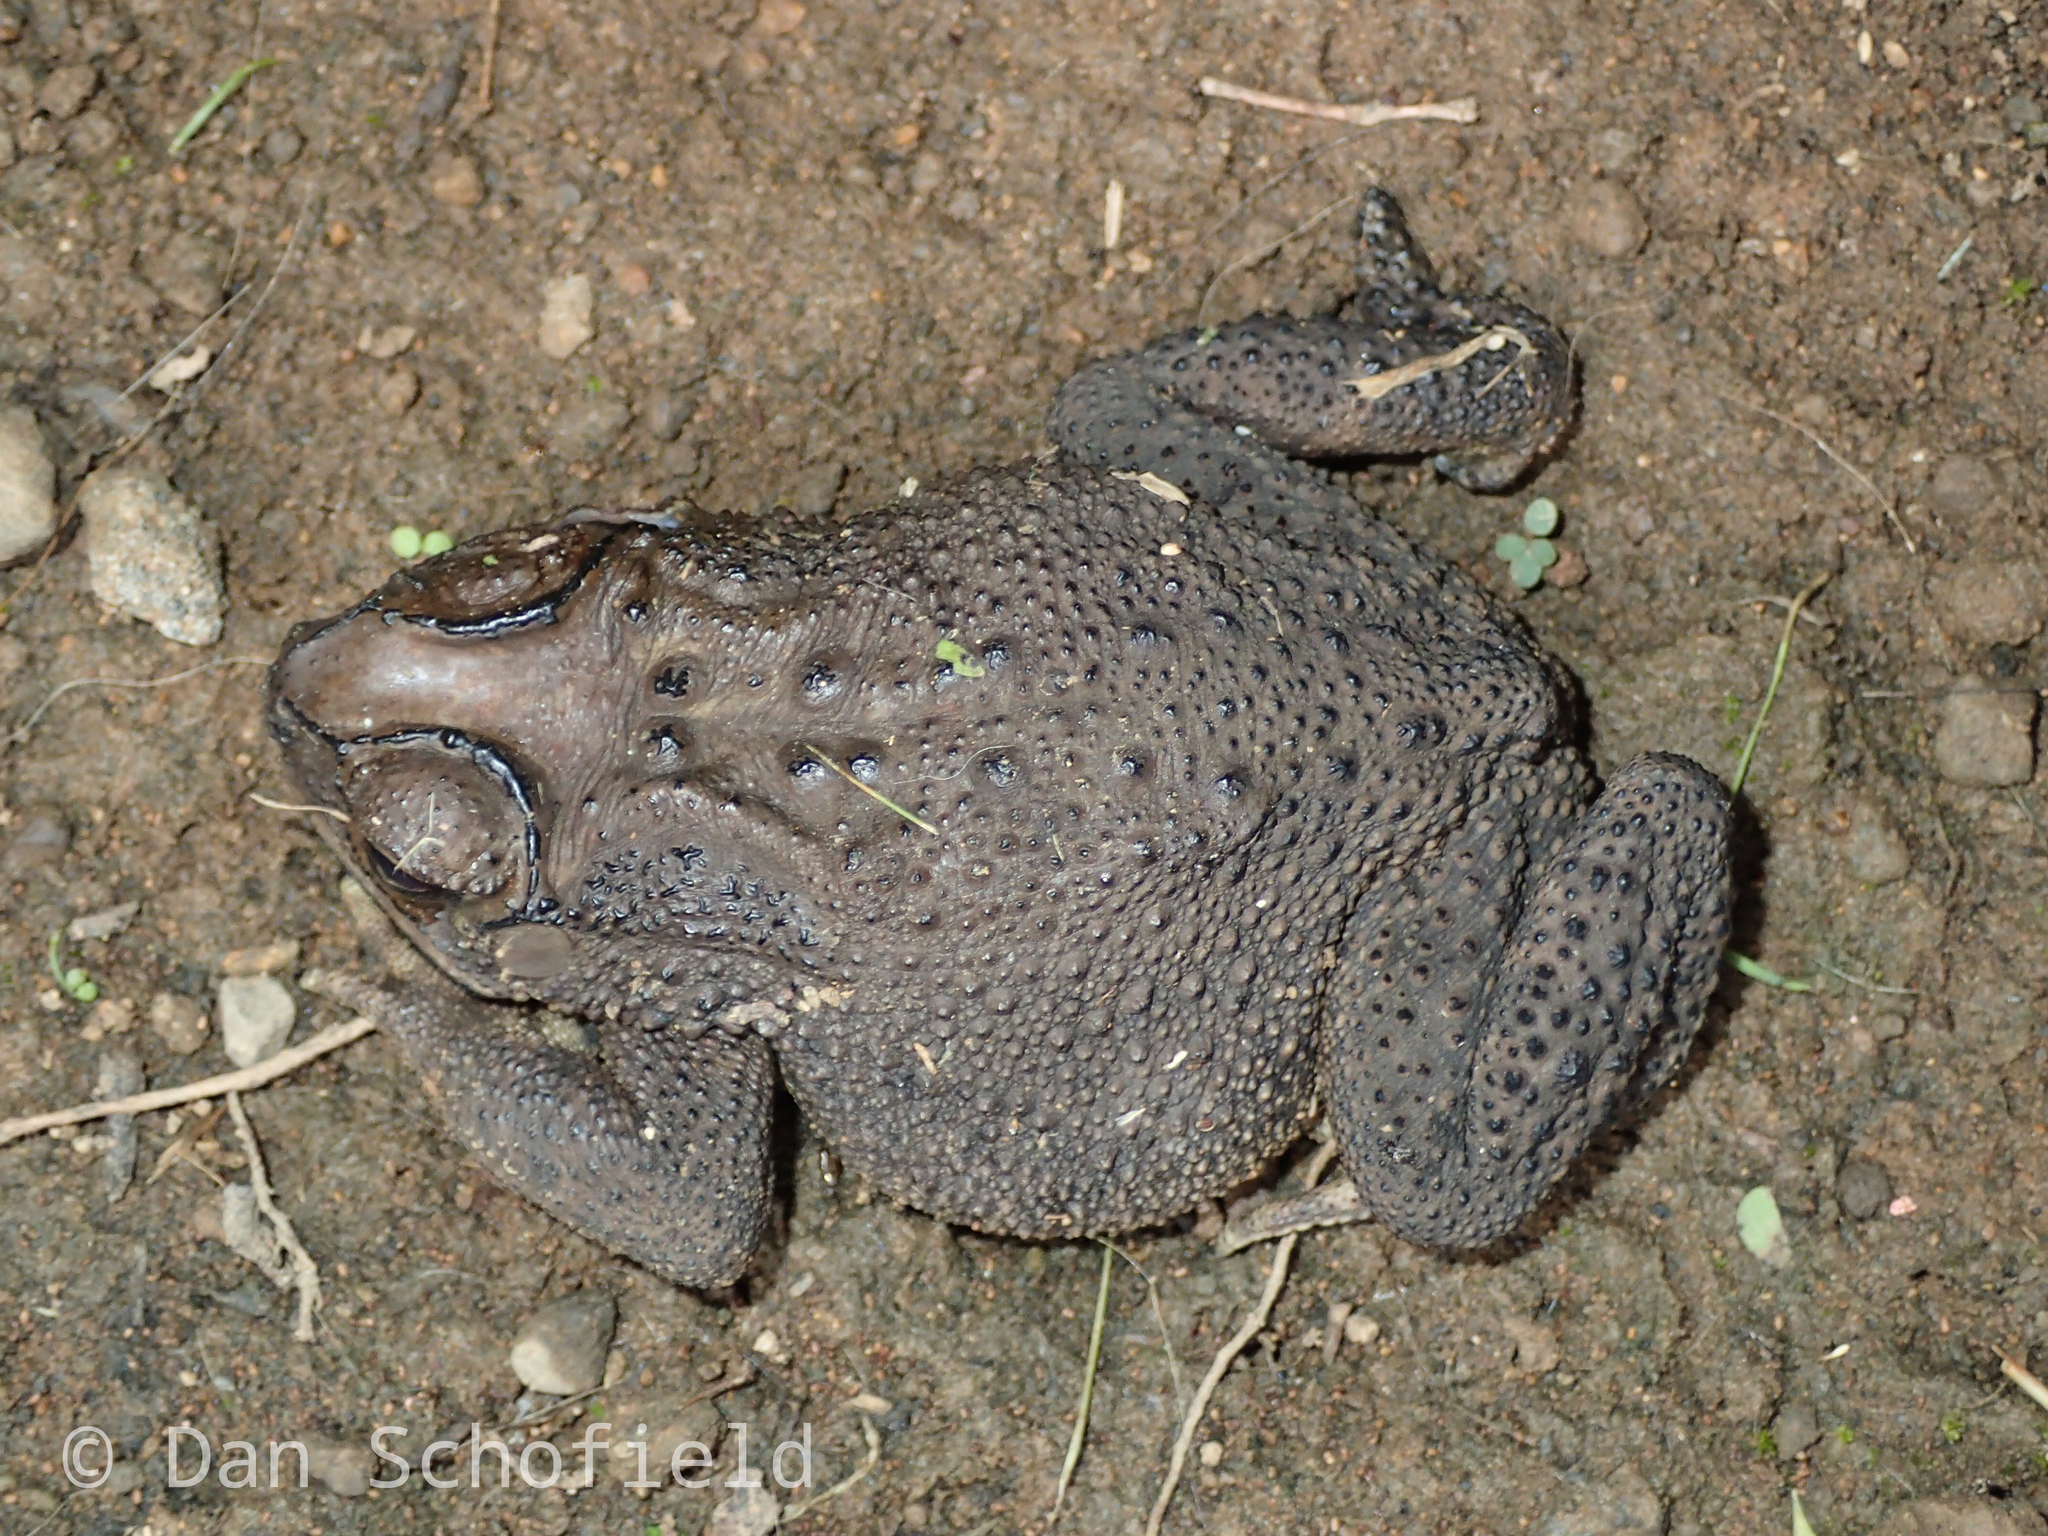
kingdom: Animalia
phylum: Chordata
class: Amphibia
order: Anura
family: Bufonidae
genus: Duttaphrynus
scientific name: Duttaphrynus melanostictus
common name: Common sunda toad
